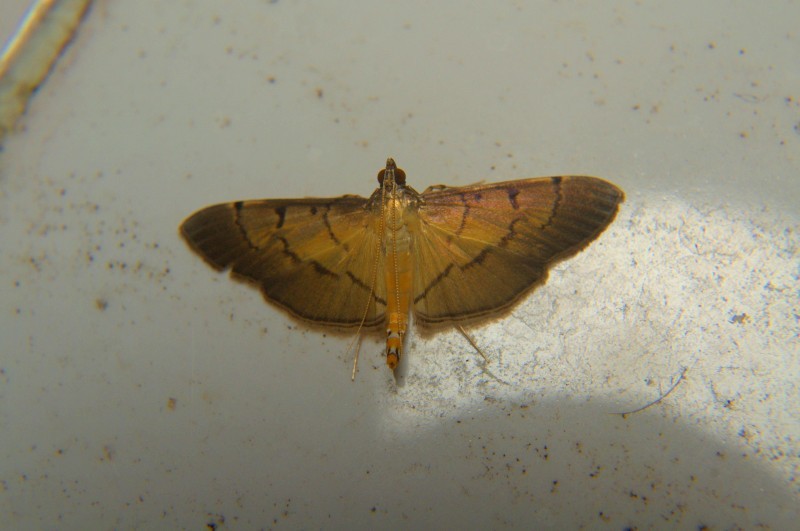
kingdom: Animalia
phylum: Arthropoda
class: Insecta
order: Lepidoptera
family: Crambidae
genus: Bacotoma
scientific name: Bacotoma
